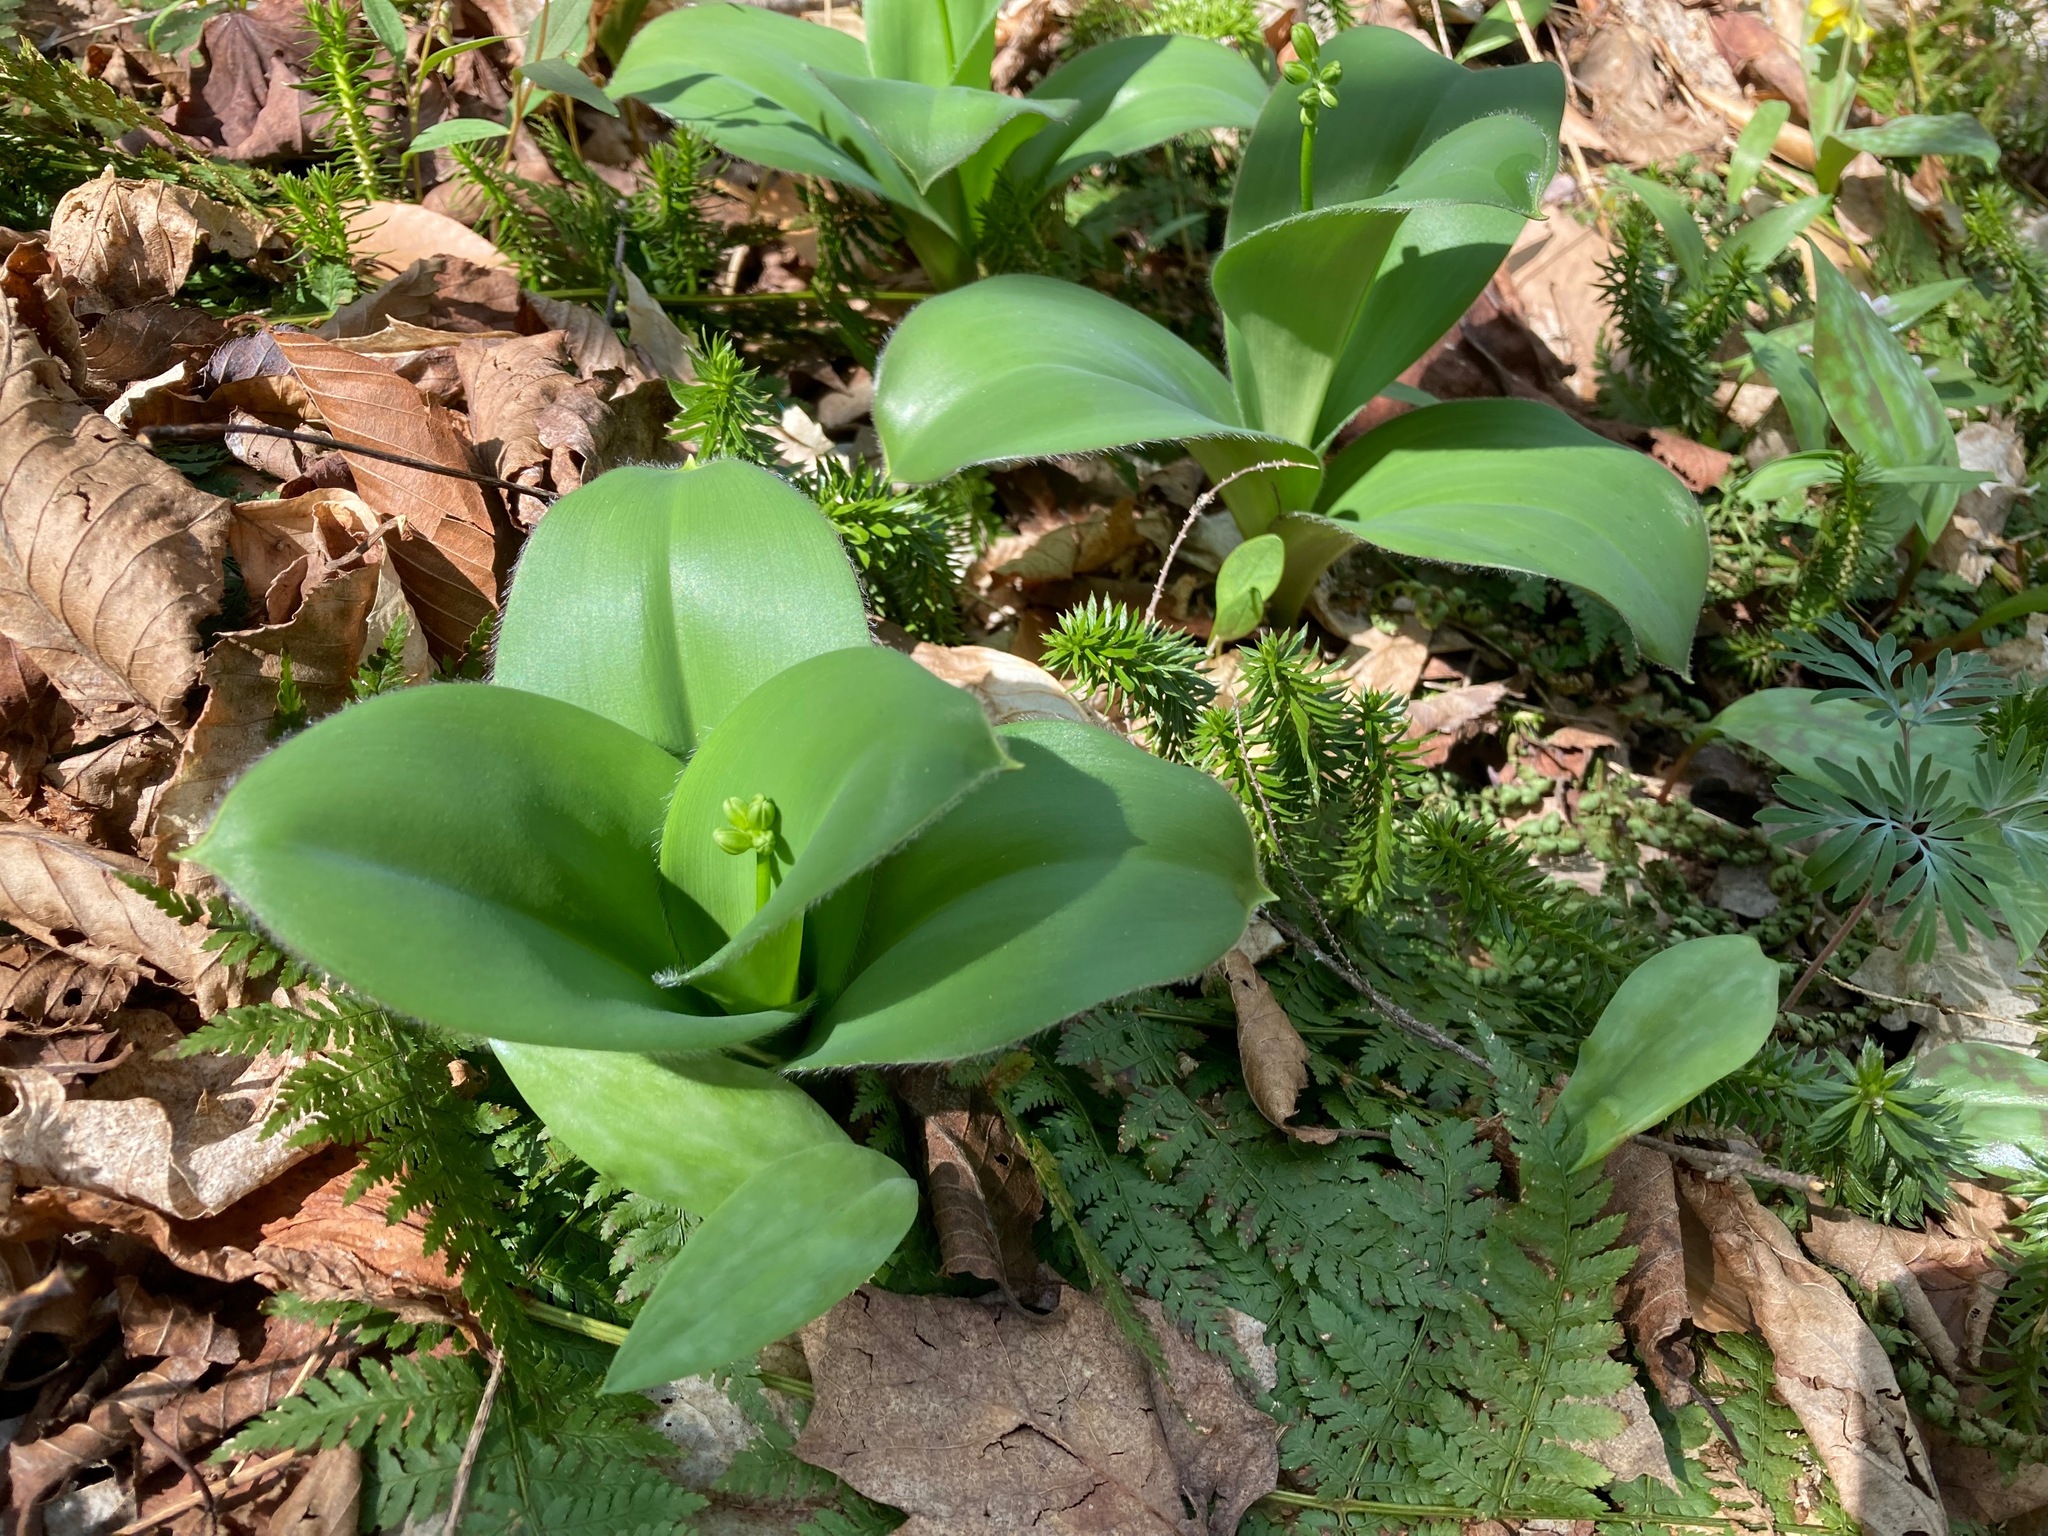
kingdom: Plantae
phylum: Tracheophyta
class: Liliopsida
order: Liliales
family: Liliaceae
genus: Clintonia
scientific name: Clintonia borealis
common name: Yellow clintonia
